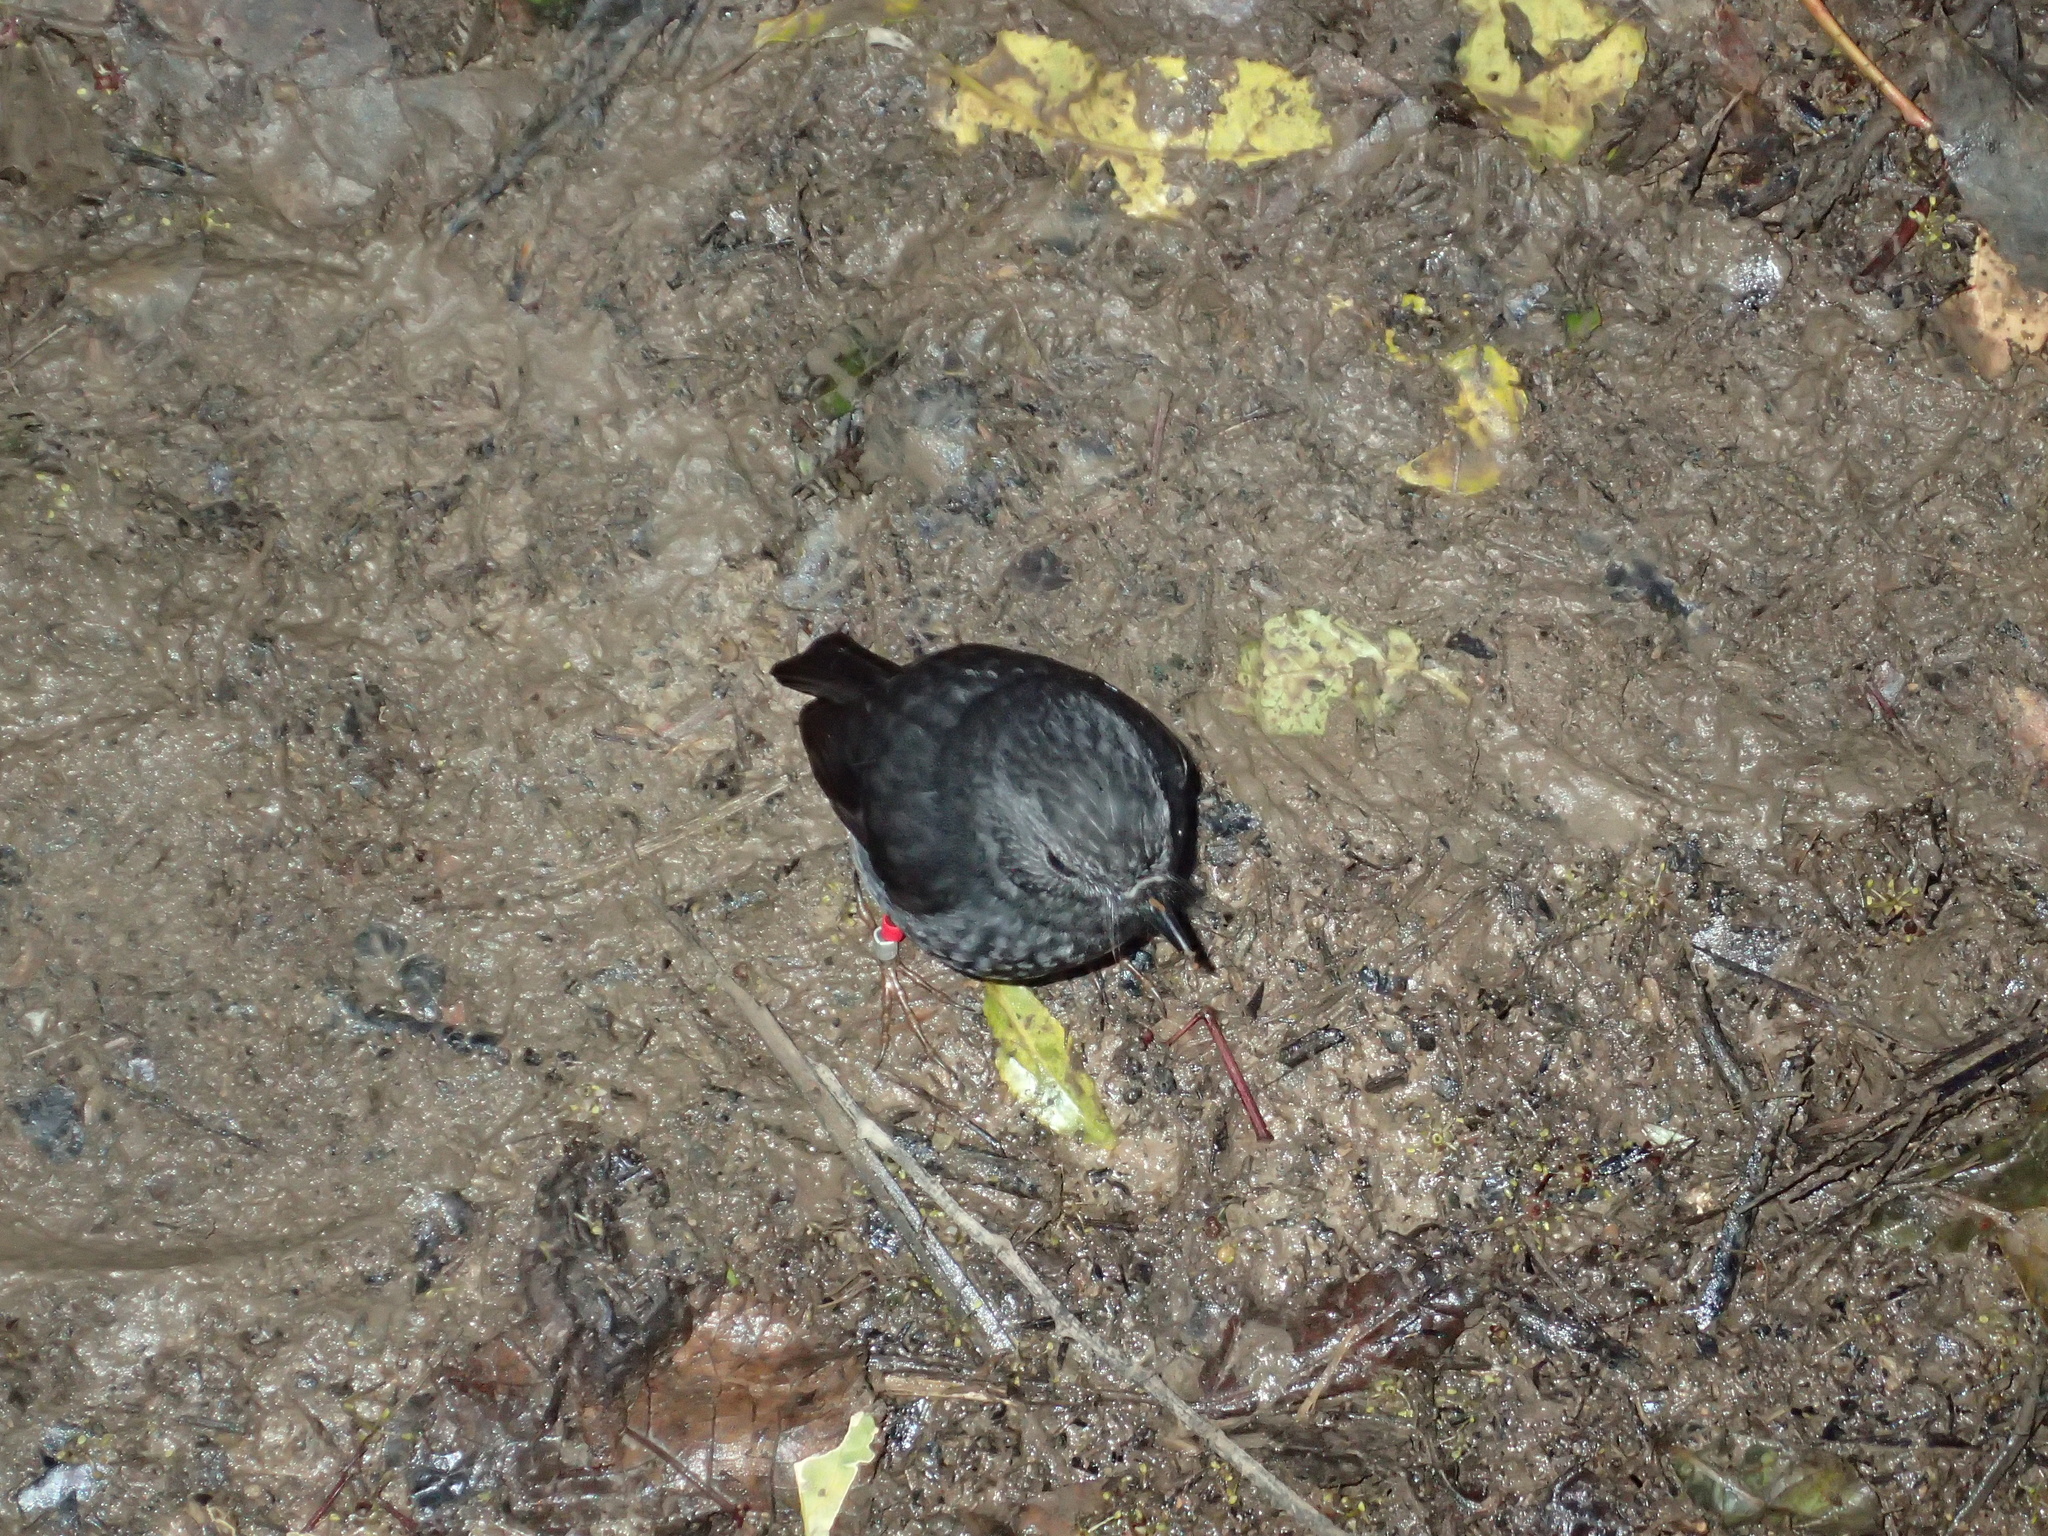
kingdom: Animalia
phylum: Chordata
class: Aves
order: Passeriformes
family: Petroicidae
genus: Petroica
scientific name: Petroica australis
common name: New zealand robin
